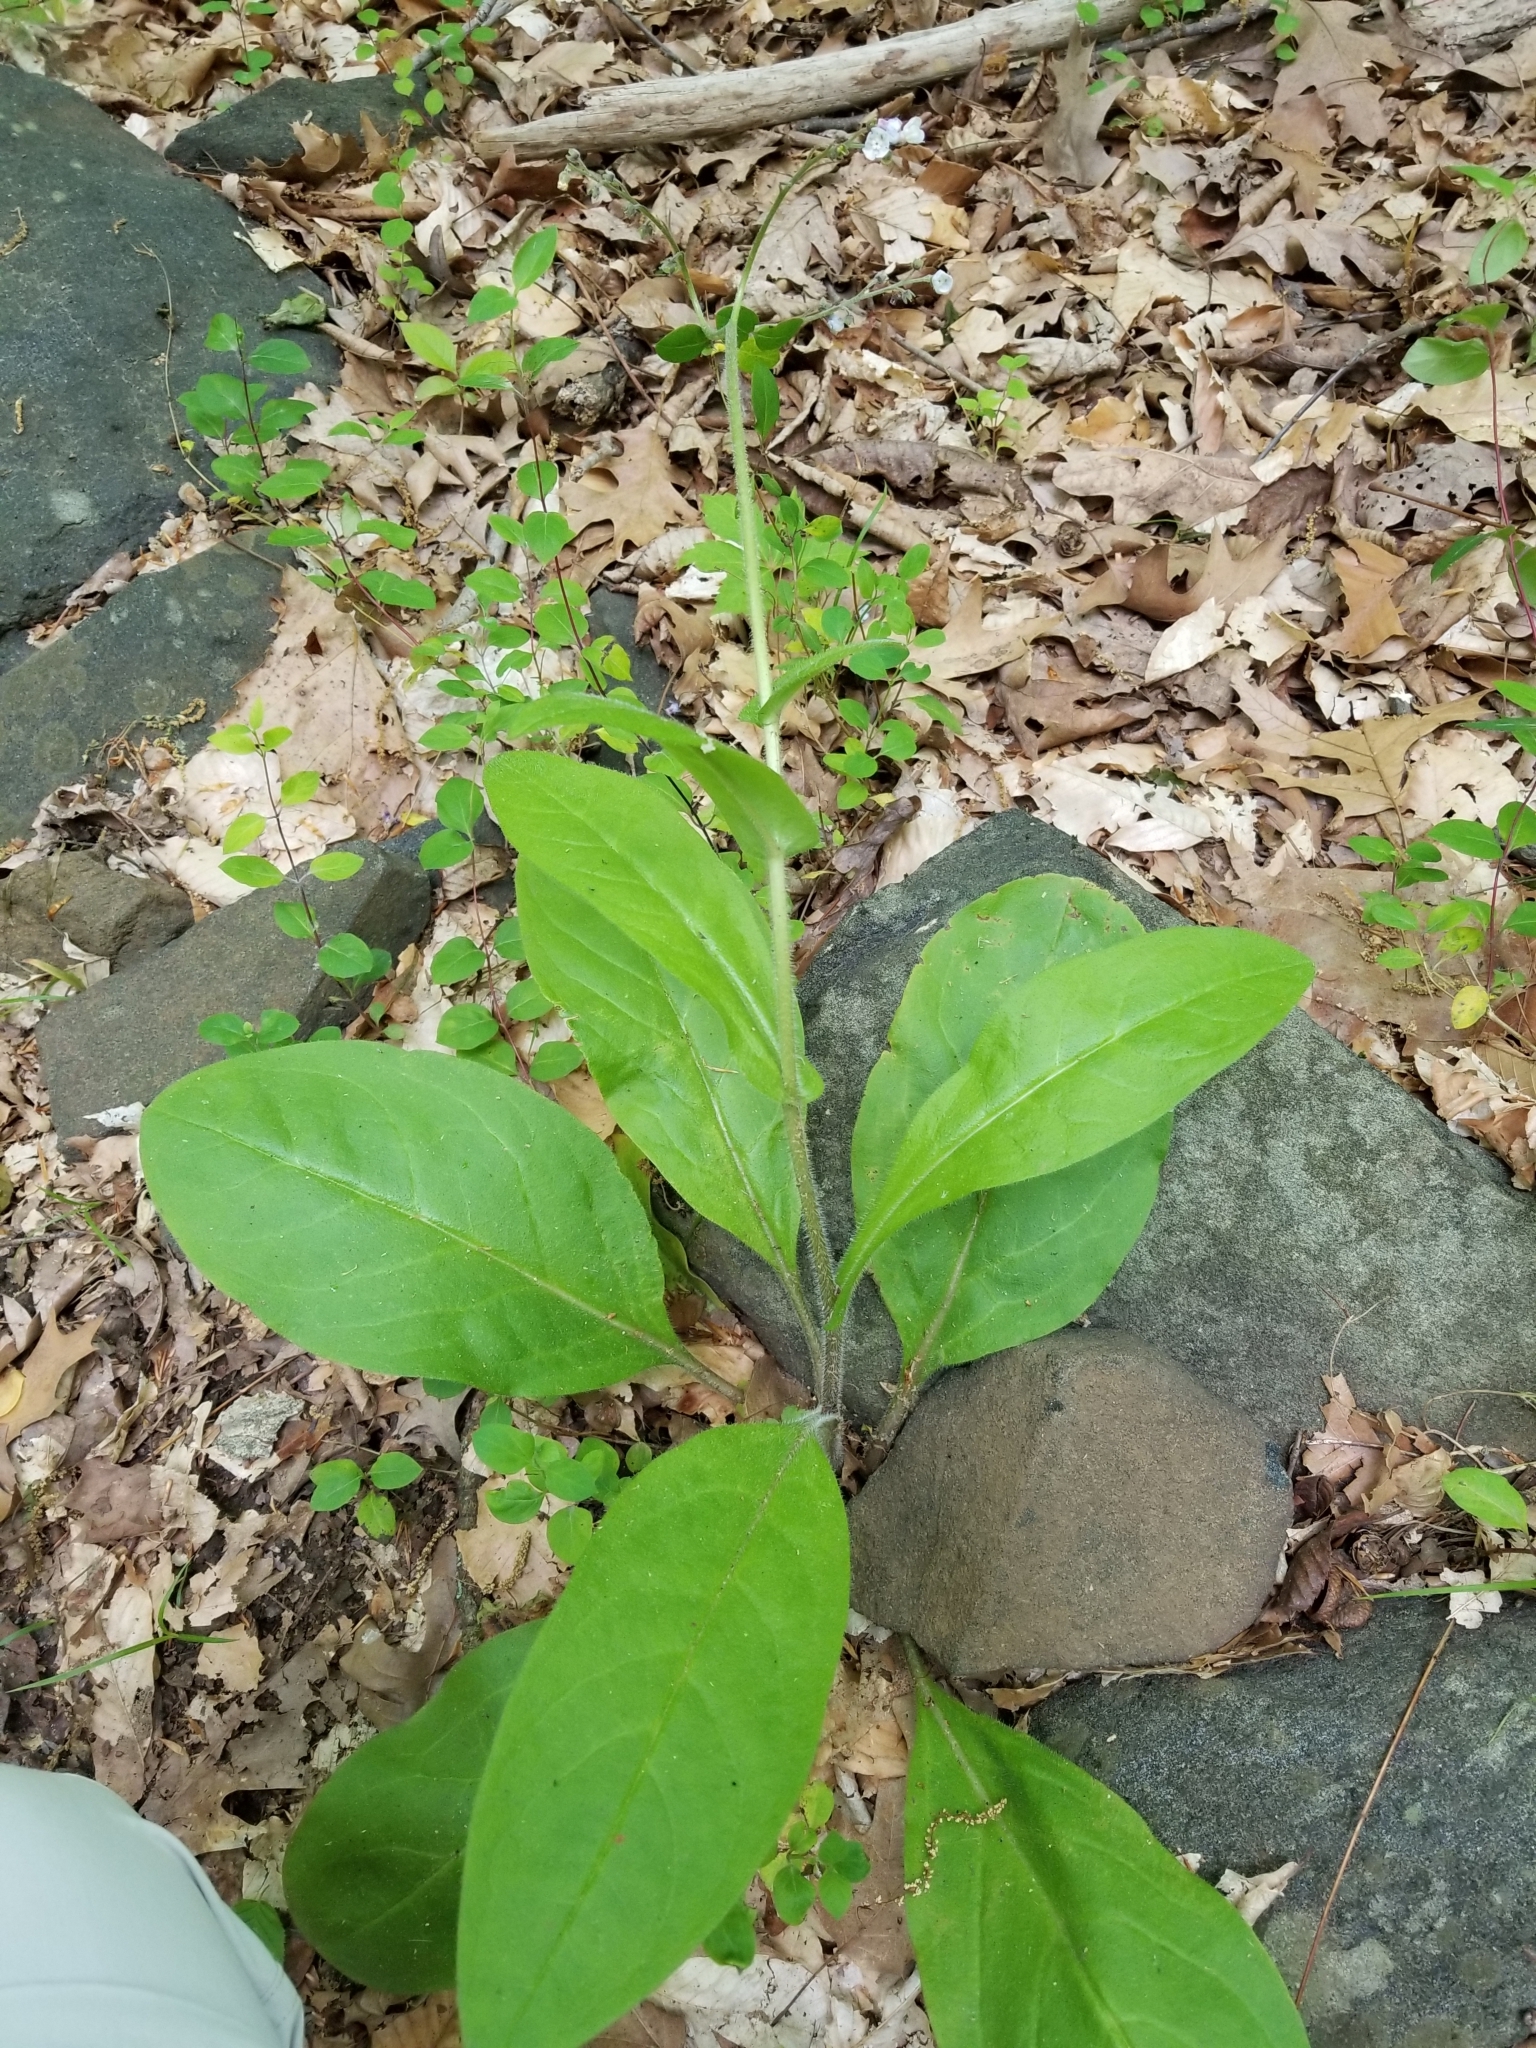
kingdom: Plantae
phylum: Tracheophyta
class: Magnoliopsida
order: Boraginales
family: Boraginaceae
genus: Andersonglossum
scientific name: Andersonglossum virginianum
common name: Wild comfrey
